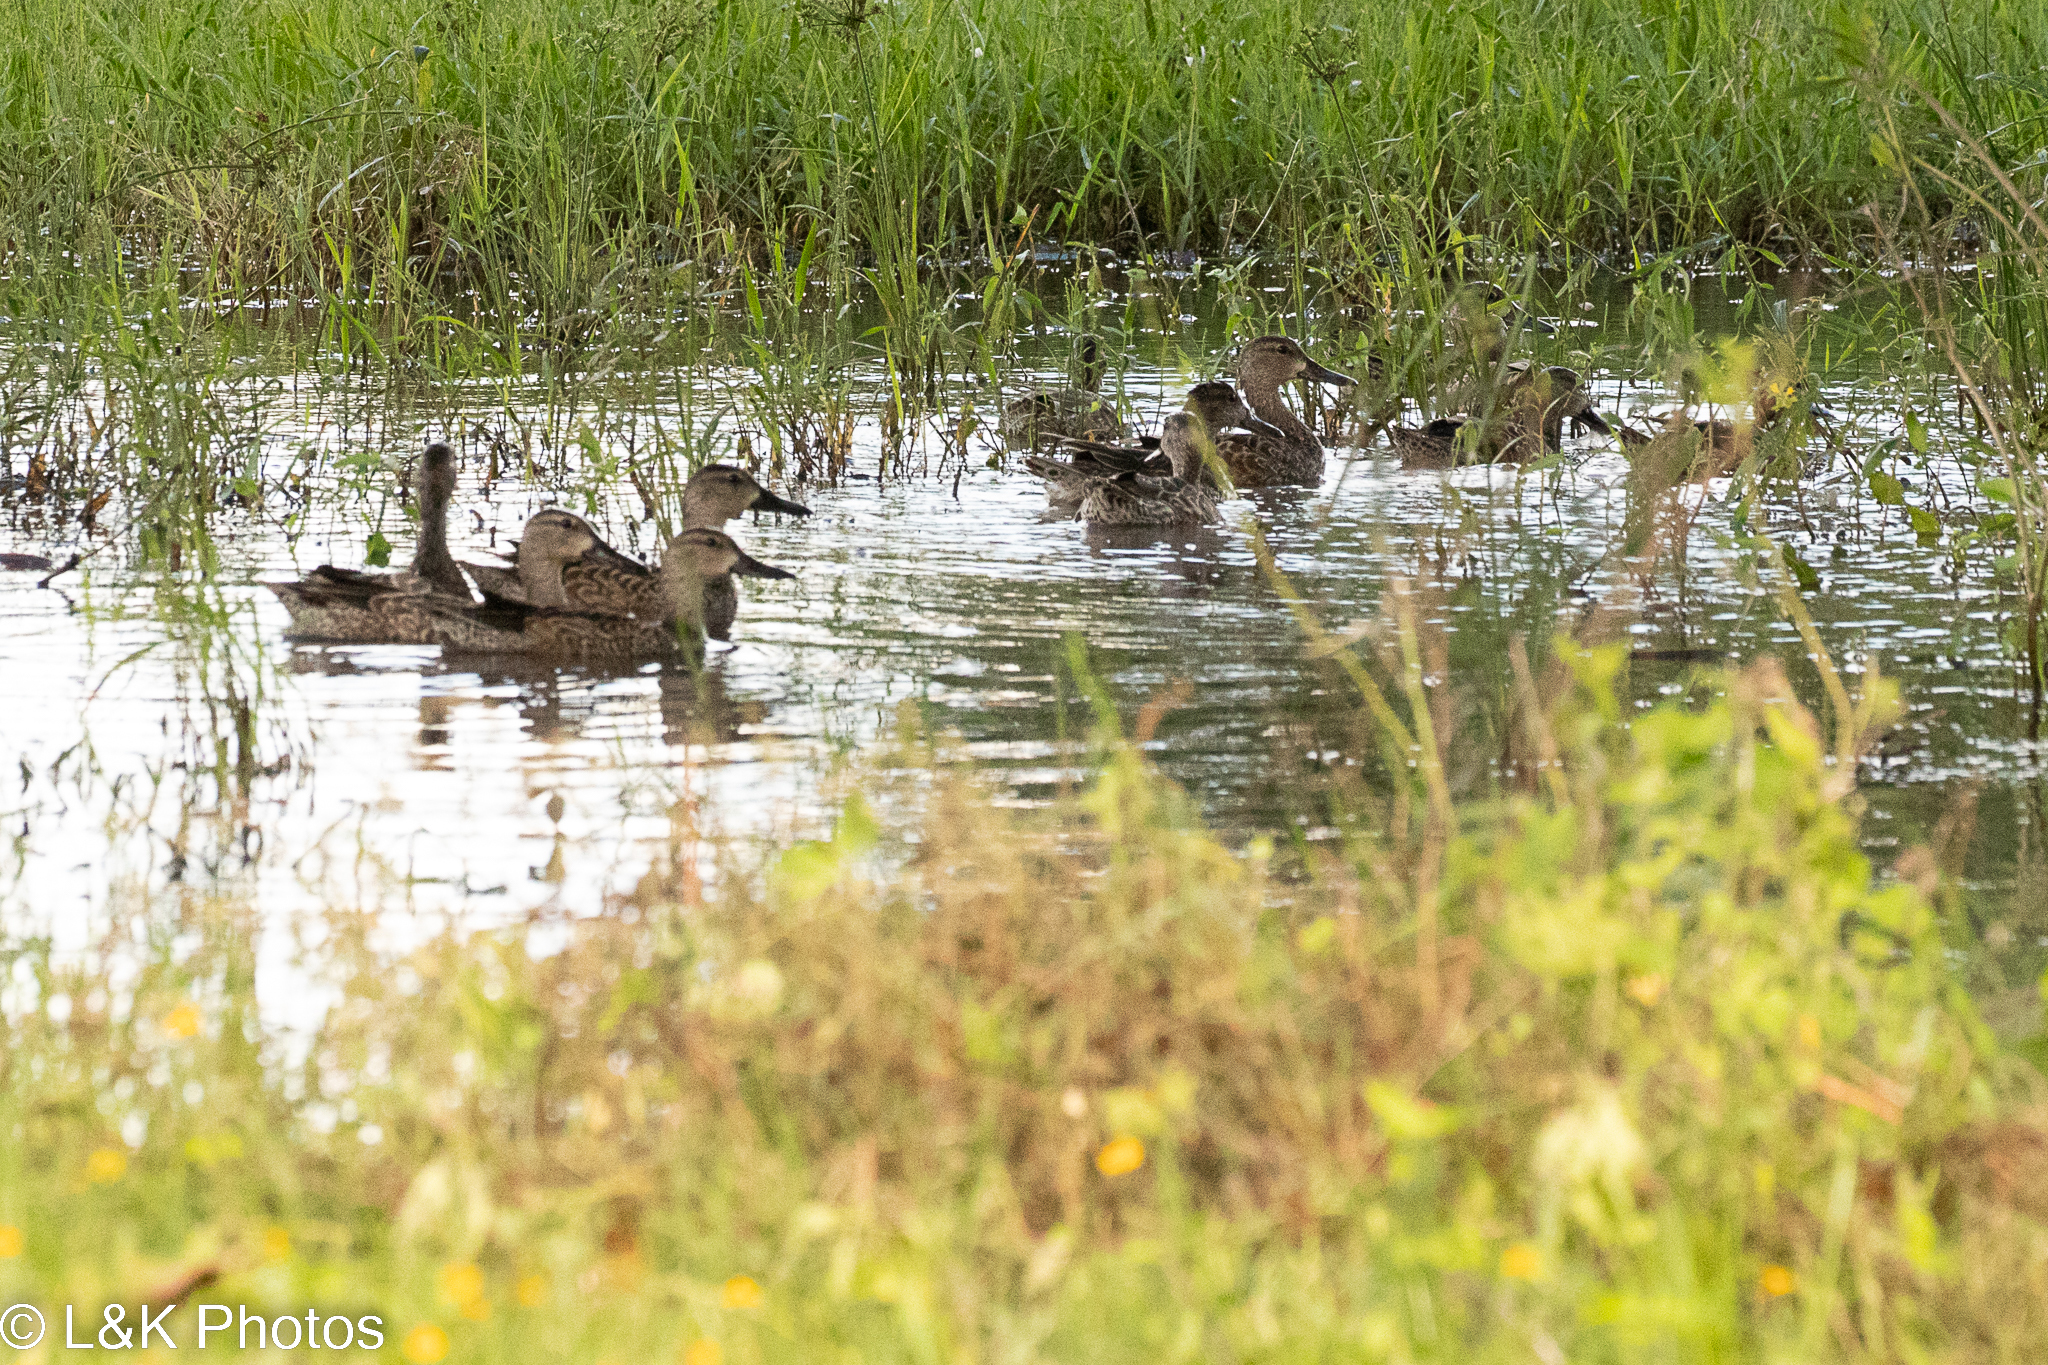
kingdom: Animalia
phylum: Chordata
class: Aves
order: Anseriformes
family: Anatidae
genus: Spatula
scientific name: Spatula discors
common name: Blue-winged teal
